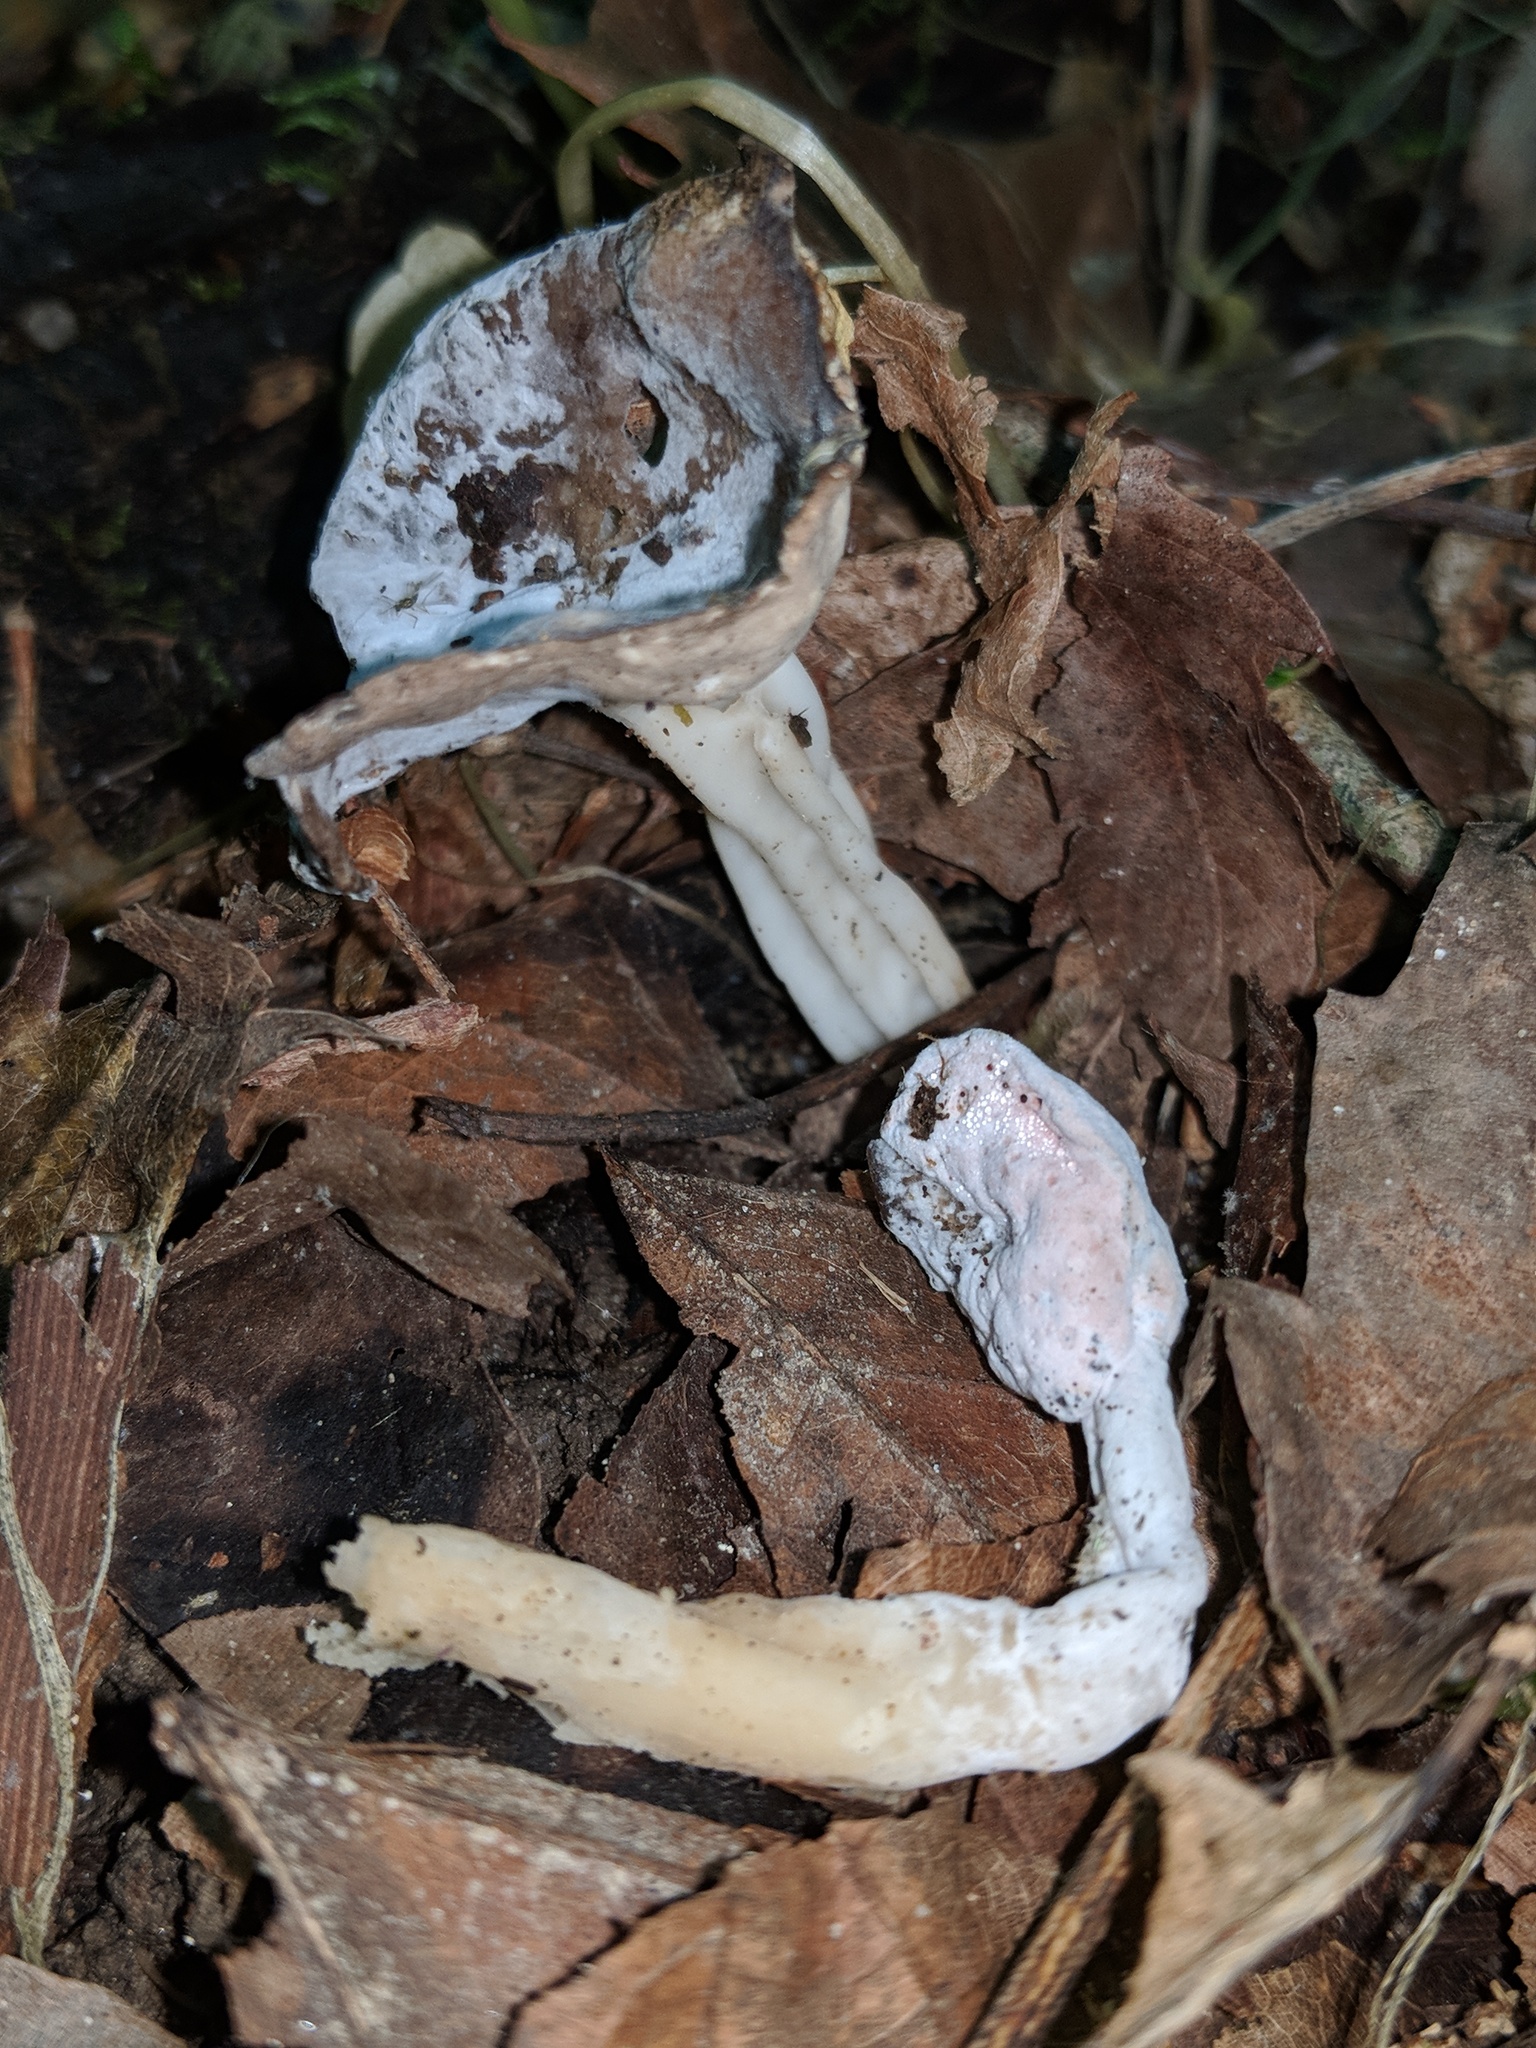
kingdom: Fungi
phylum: Ascomycota
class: Sordariomycetes
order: Hypocreales
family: Hypocreaceae
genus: Hypomyces
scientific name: Hypomyces cervinus
